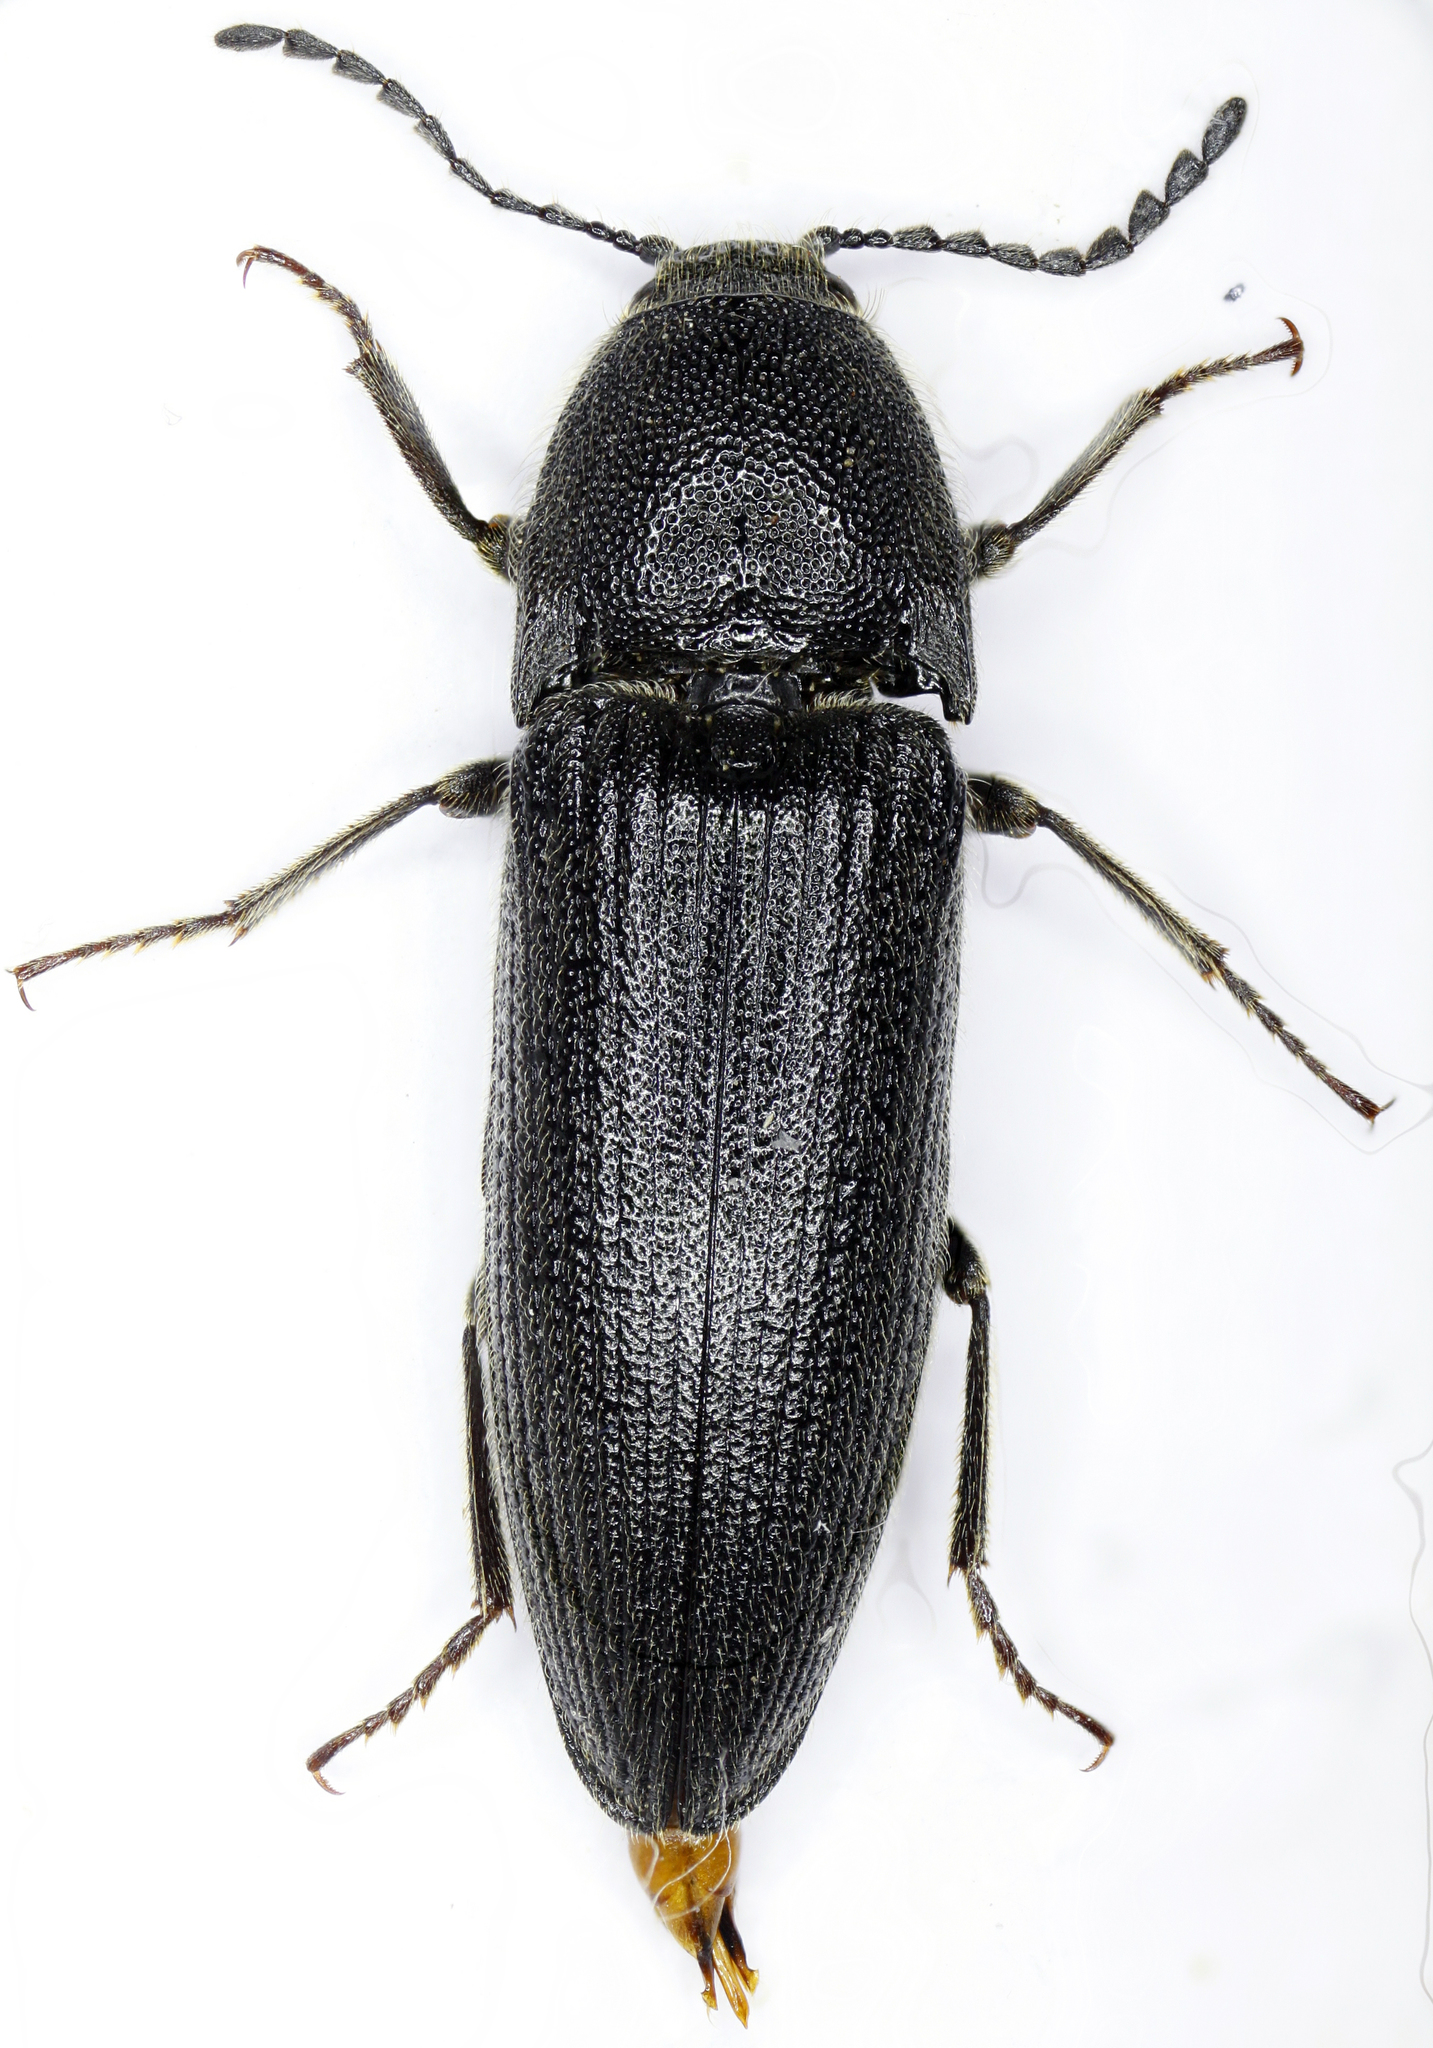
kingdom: Animalia
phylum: Arthropoda
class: Insecta
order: Coleoptera
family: Elateridae
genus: Melanotus
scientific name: Melanotus punctolineatus
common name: Sandwich click beetle
